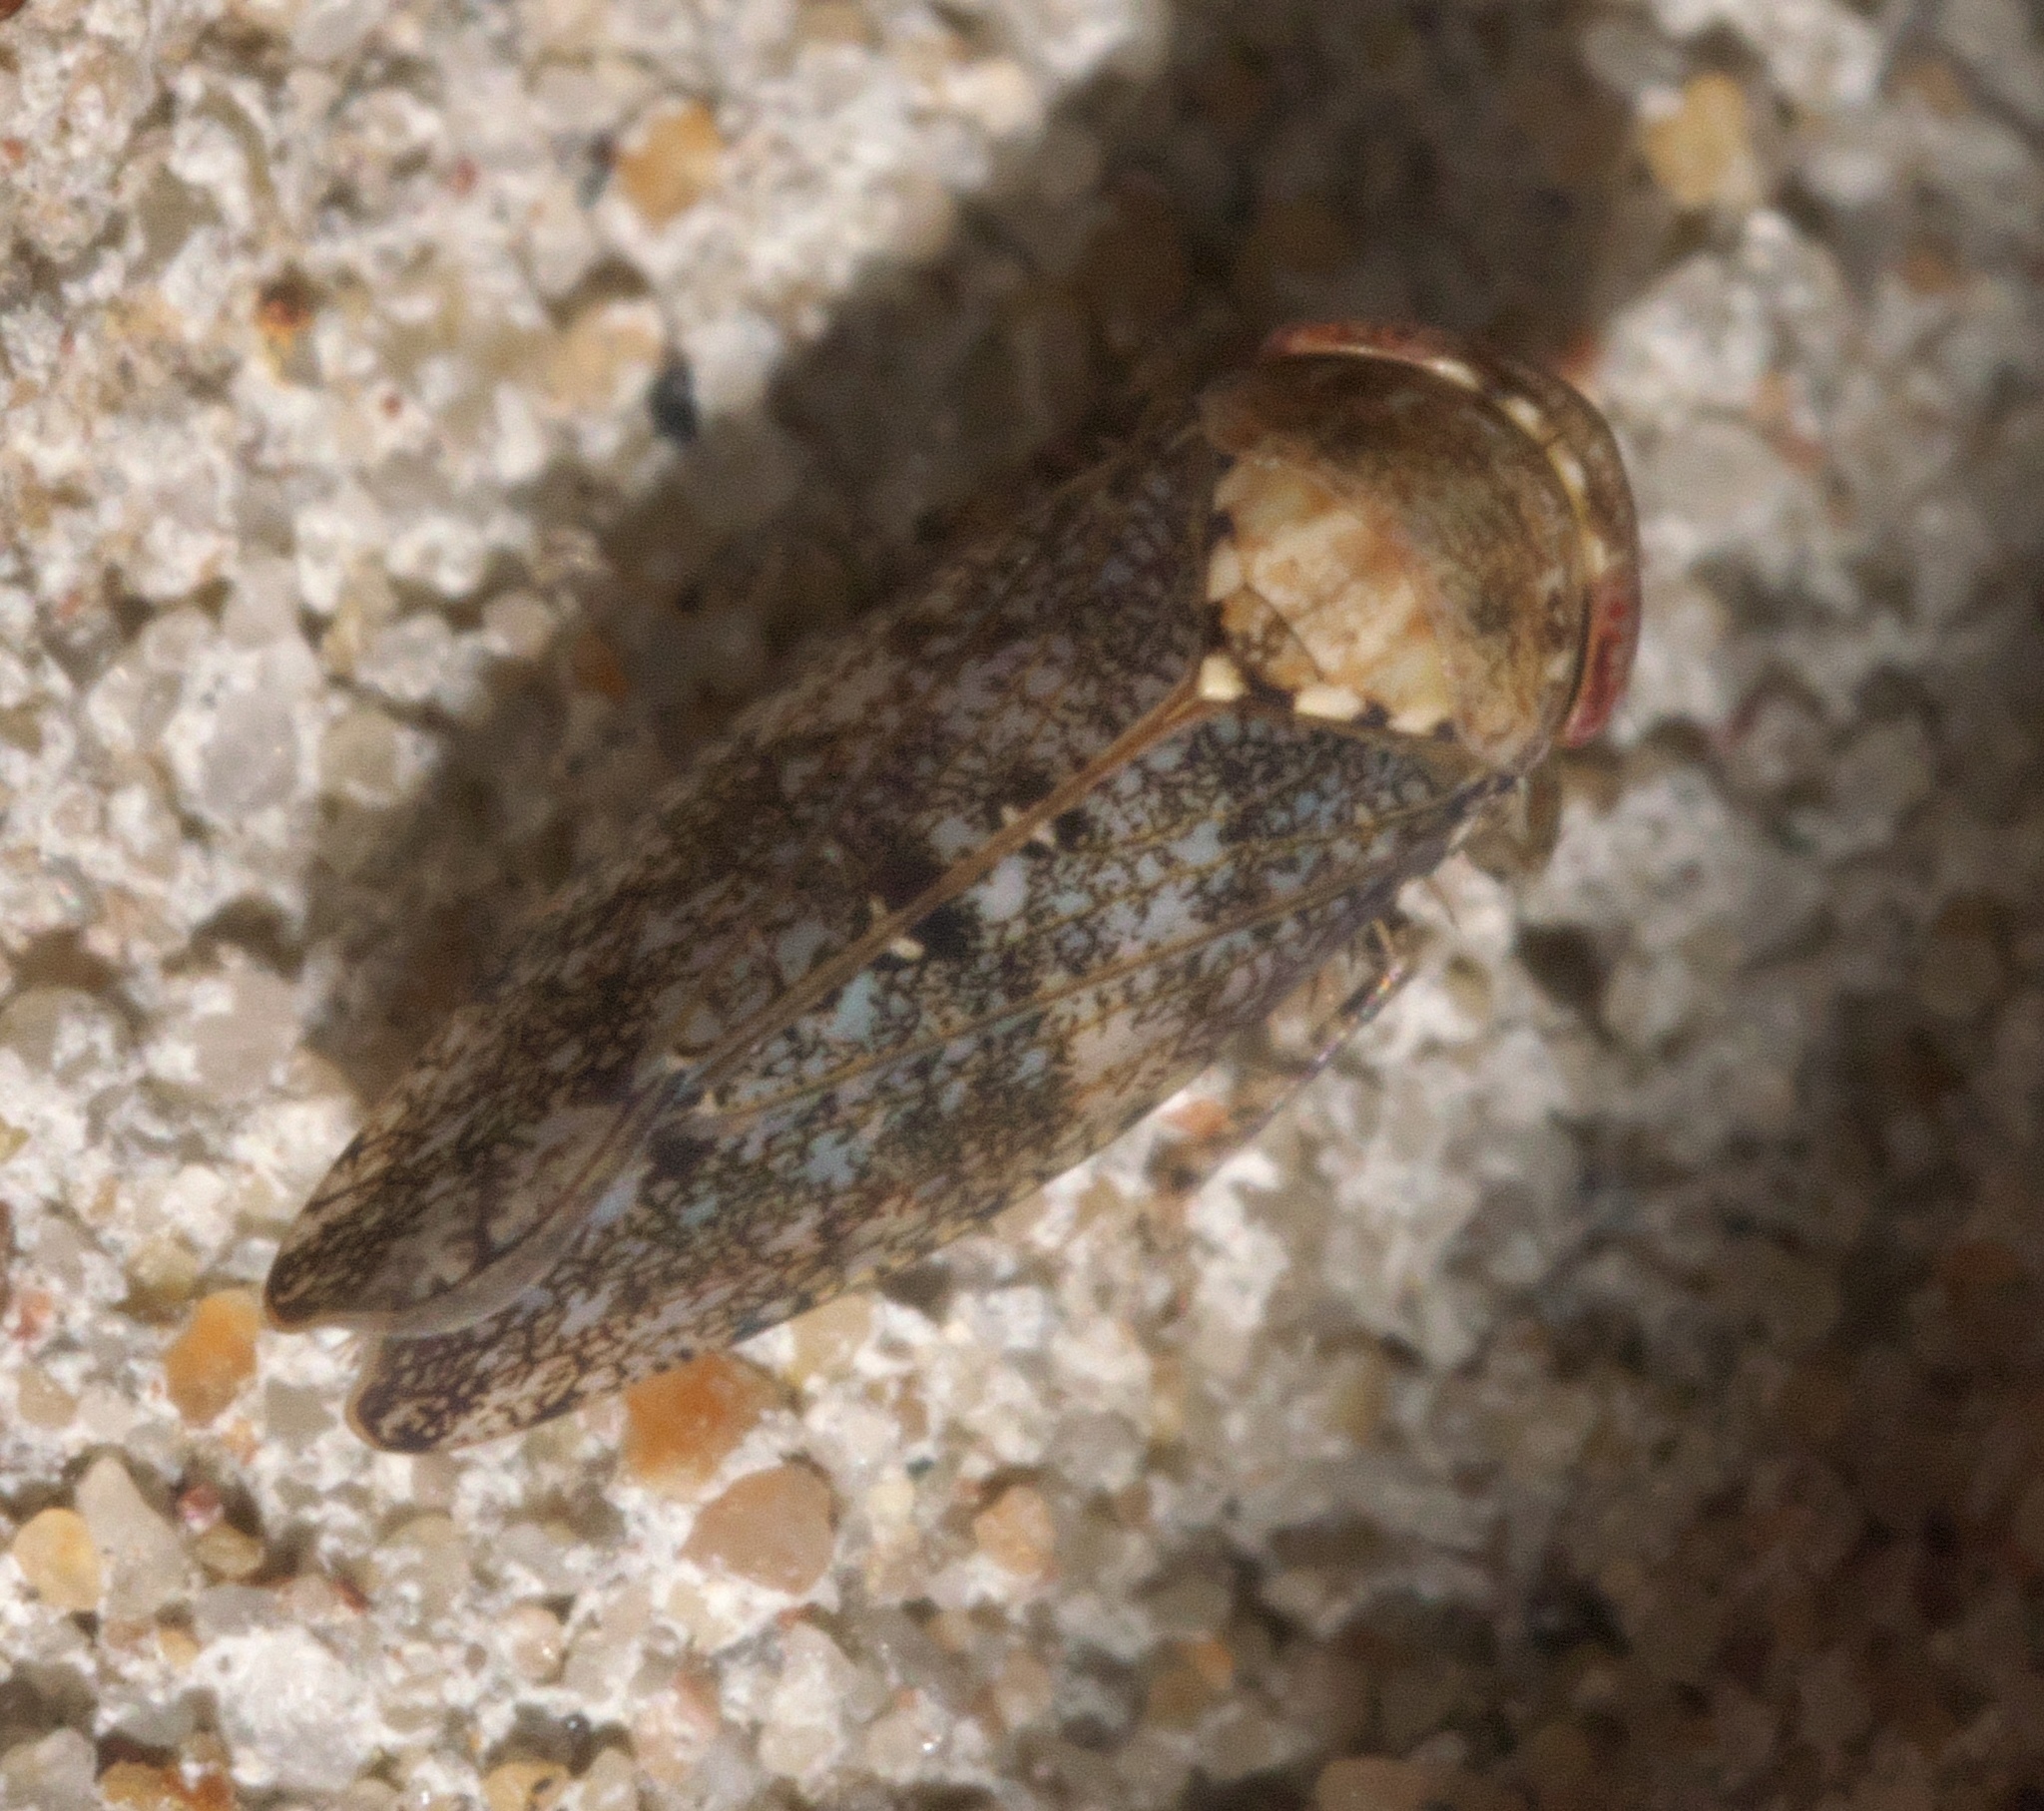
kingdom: Animalia
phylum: Arthropoda
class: Insecta
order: Hemiptera
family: Cicadellidae
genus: Paraphlepsius
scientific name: Paraphlepsius collitus
